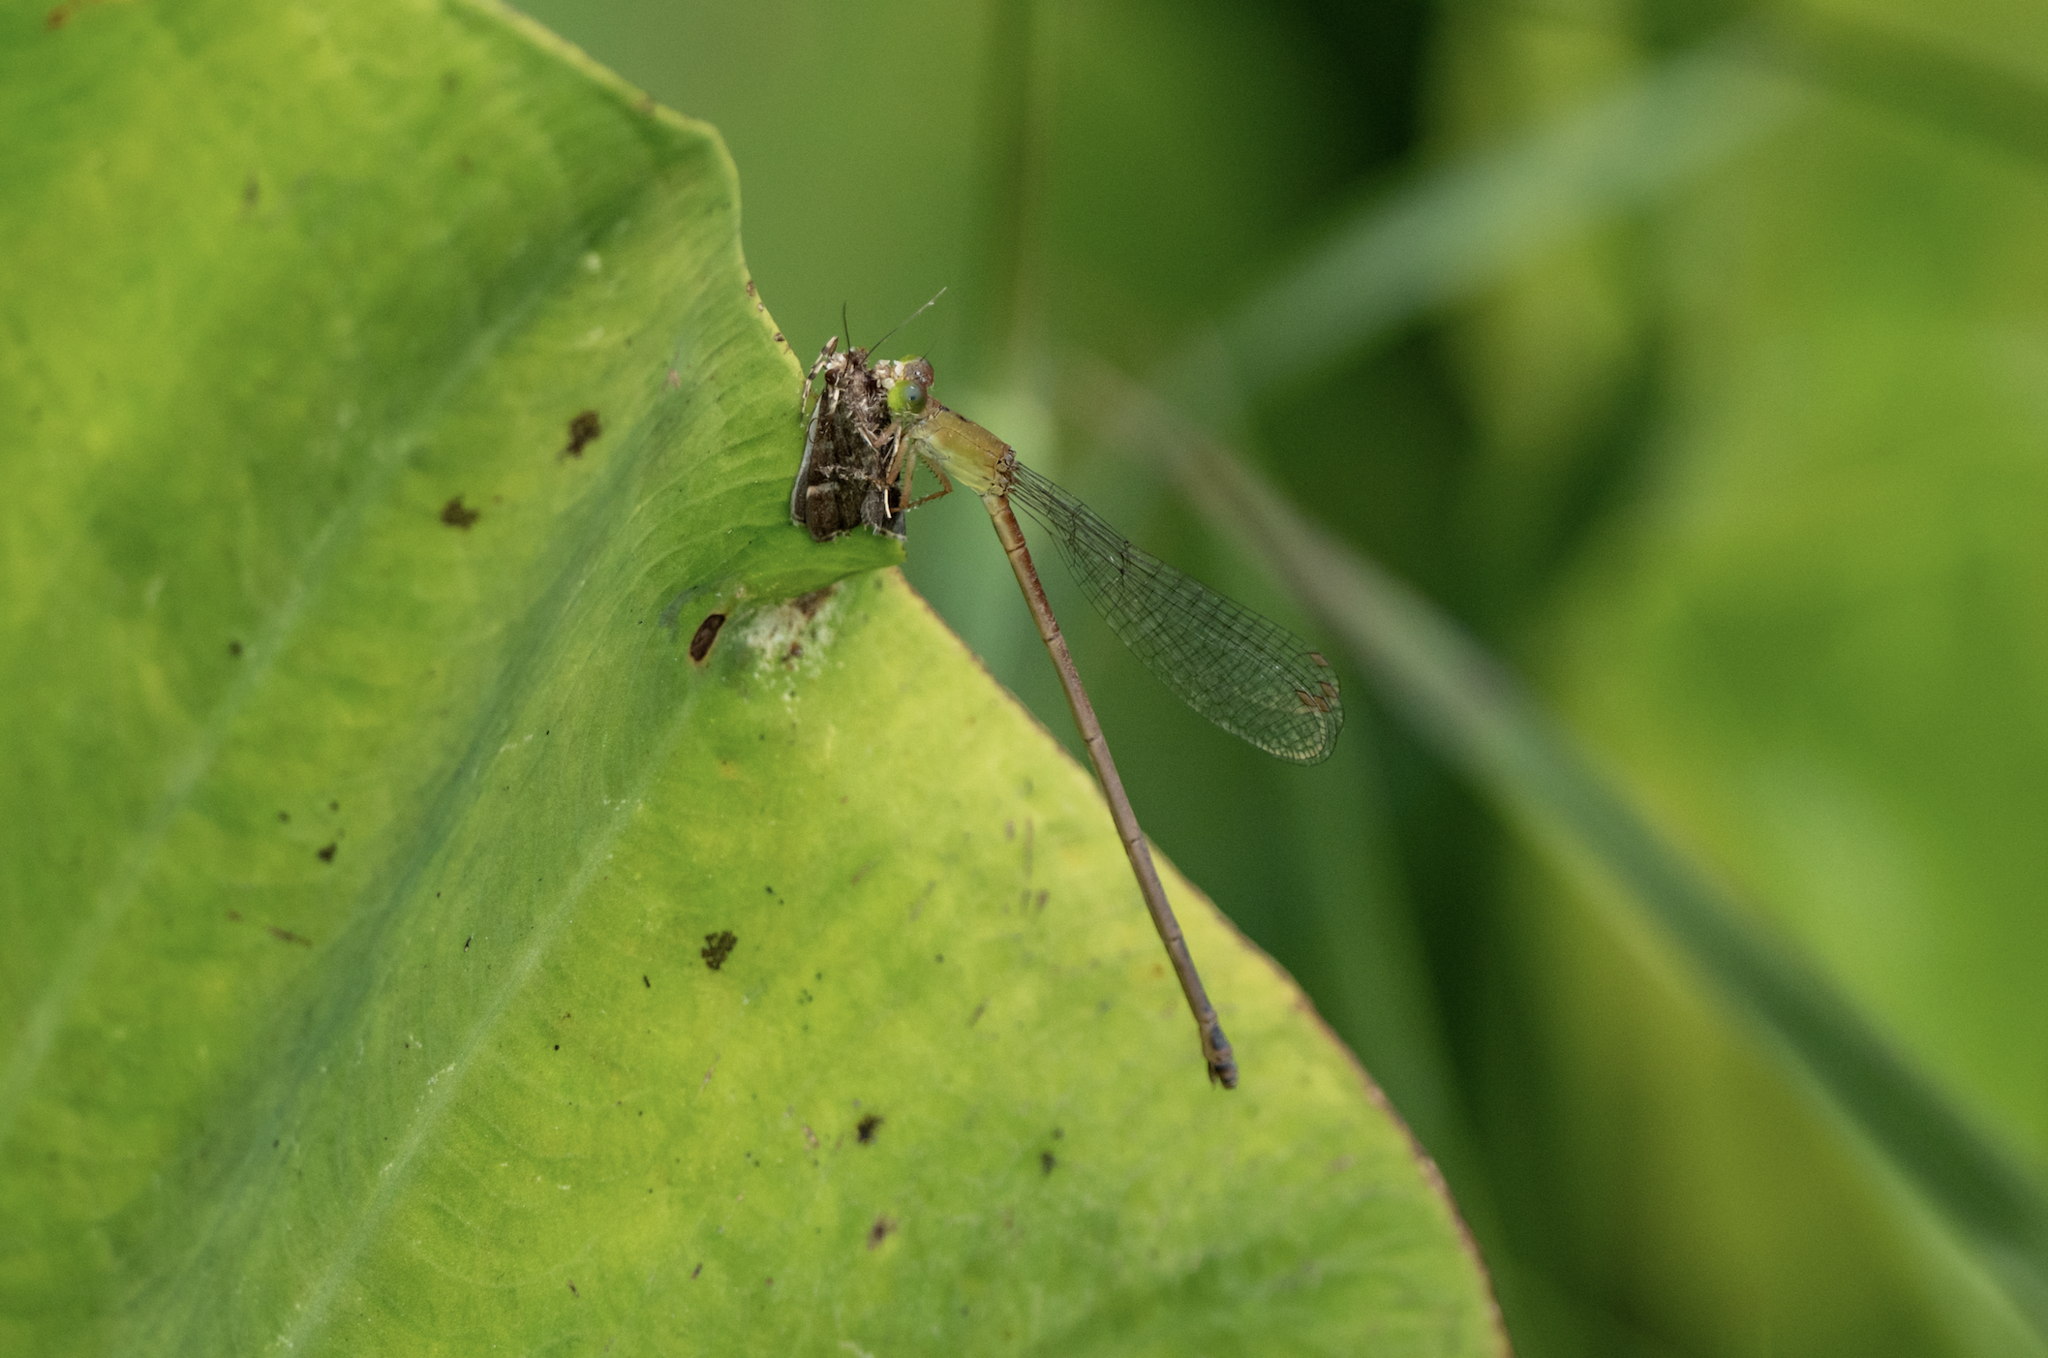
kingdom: Animalia
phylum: Arthropoda
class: Insecta
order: Odonata
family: Coenagrionidae
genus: Ceriagrion
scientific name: Ceriagrion auranticum
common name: Orange-tailed sprite
